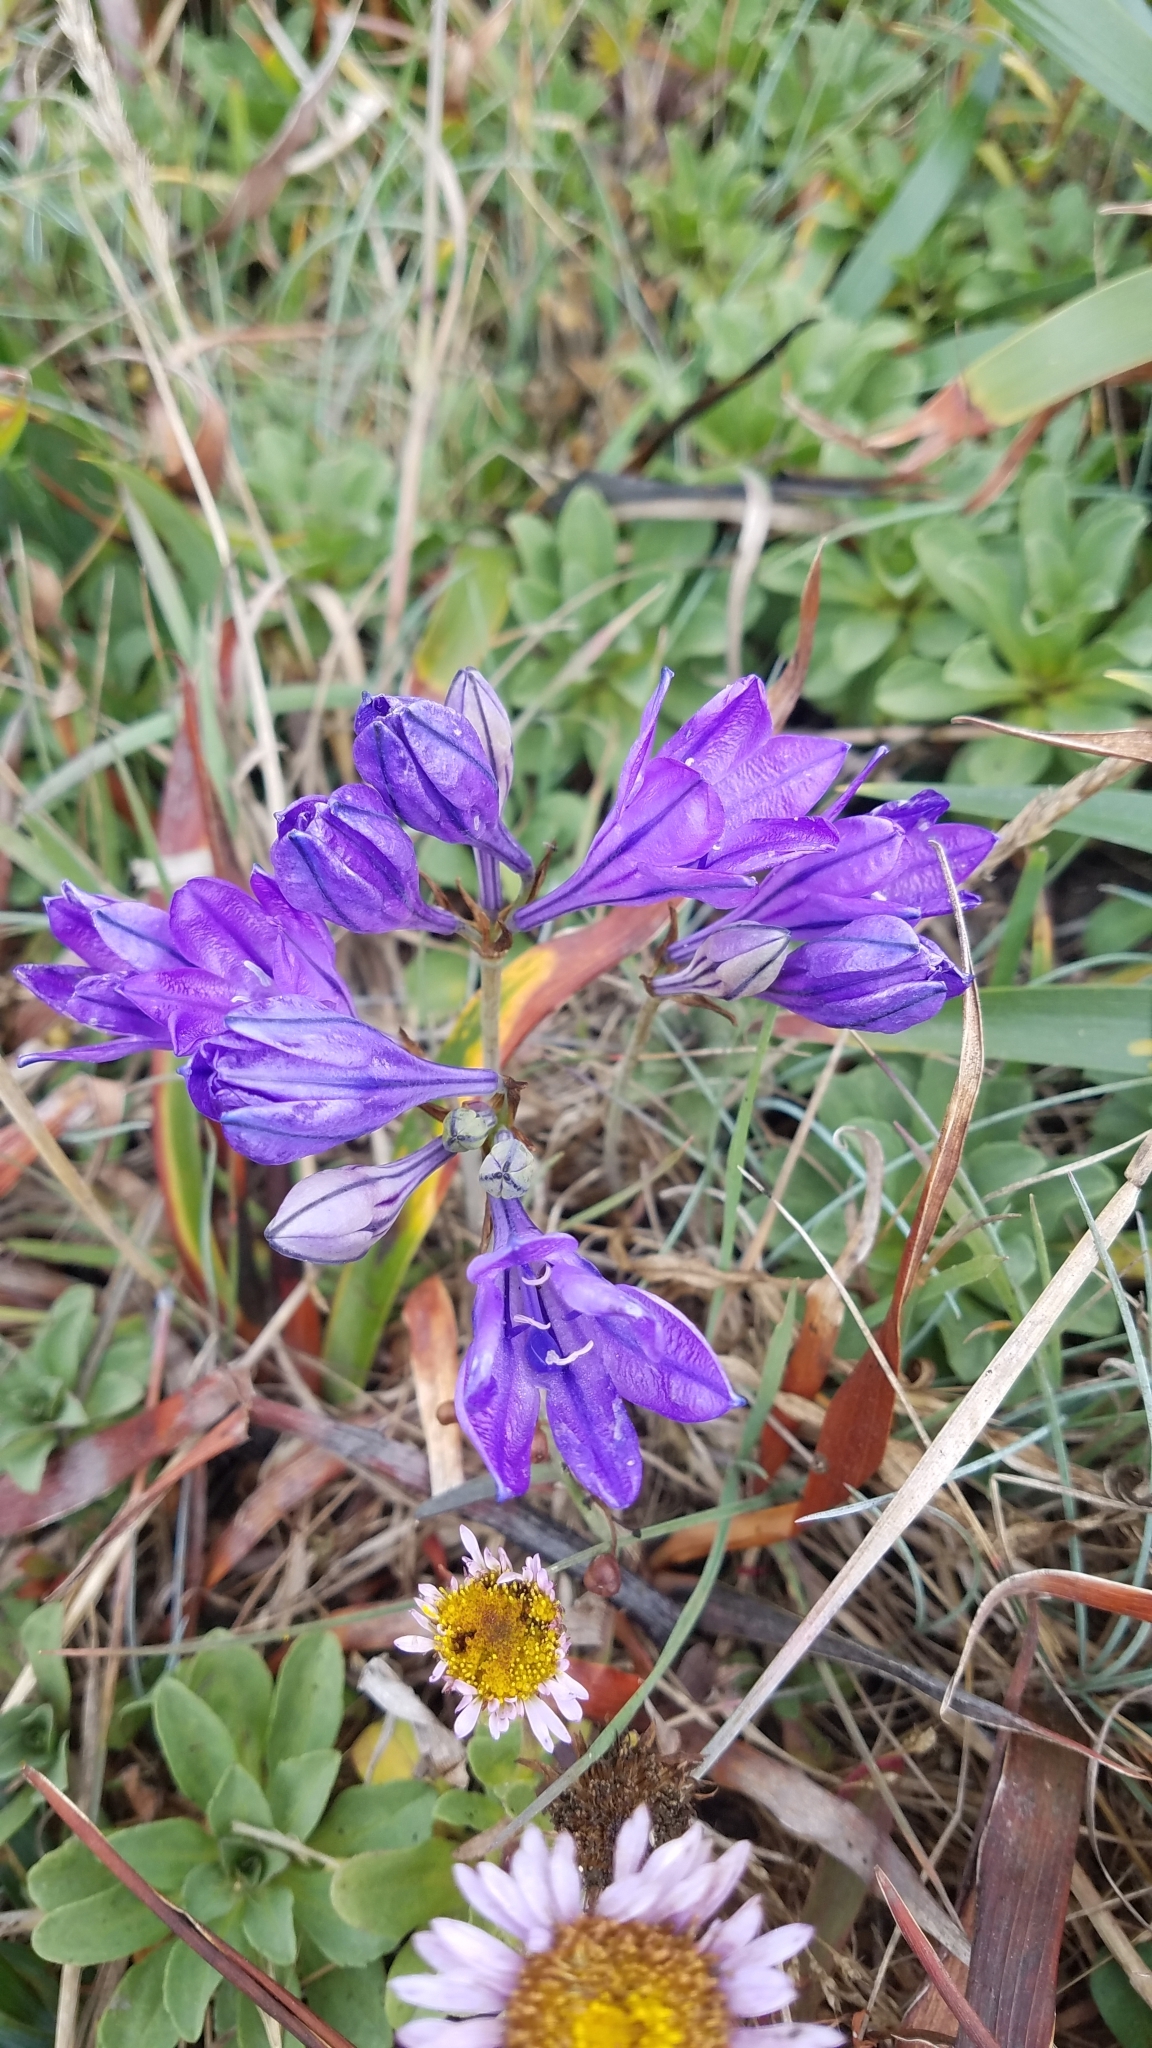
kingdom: Plantae
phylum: Tracheophyta
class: Liliopsida
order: Asparagales
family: Asparagaceae
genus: Triteleia
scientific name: Triteleia laxa
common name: Triplet-lily
